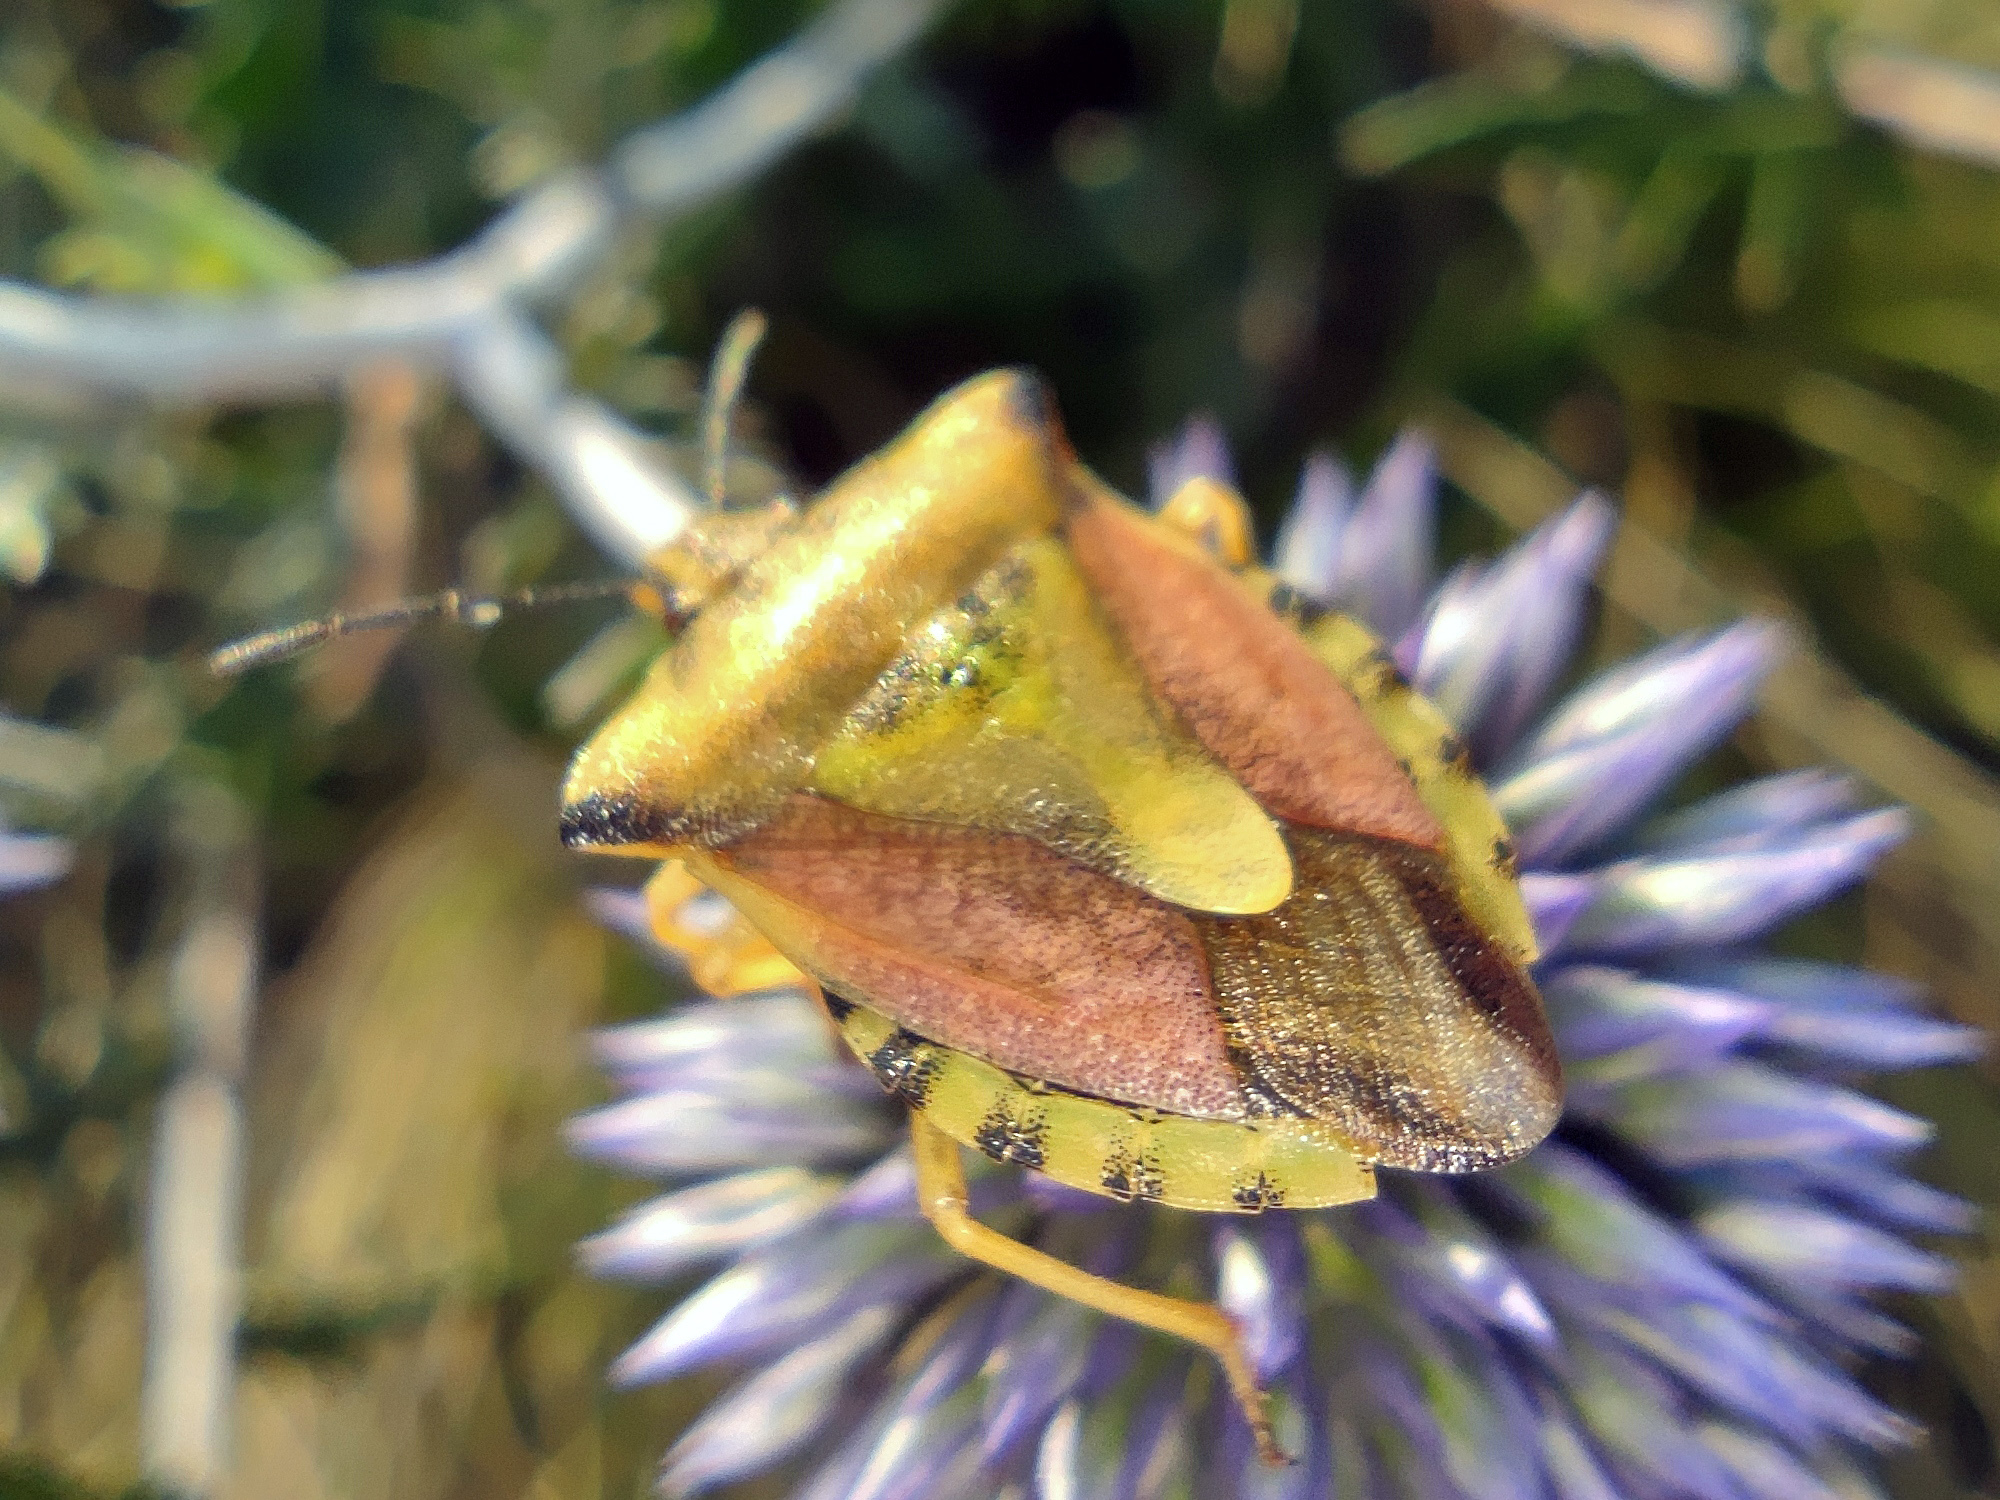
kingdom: Animalia
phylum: Arthropoda
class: Insecta
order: Hemiptera
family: Pentatomidae
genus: Carpocoris
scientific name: Carpocoris fuscispinus
